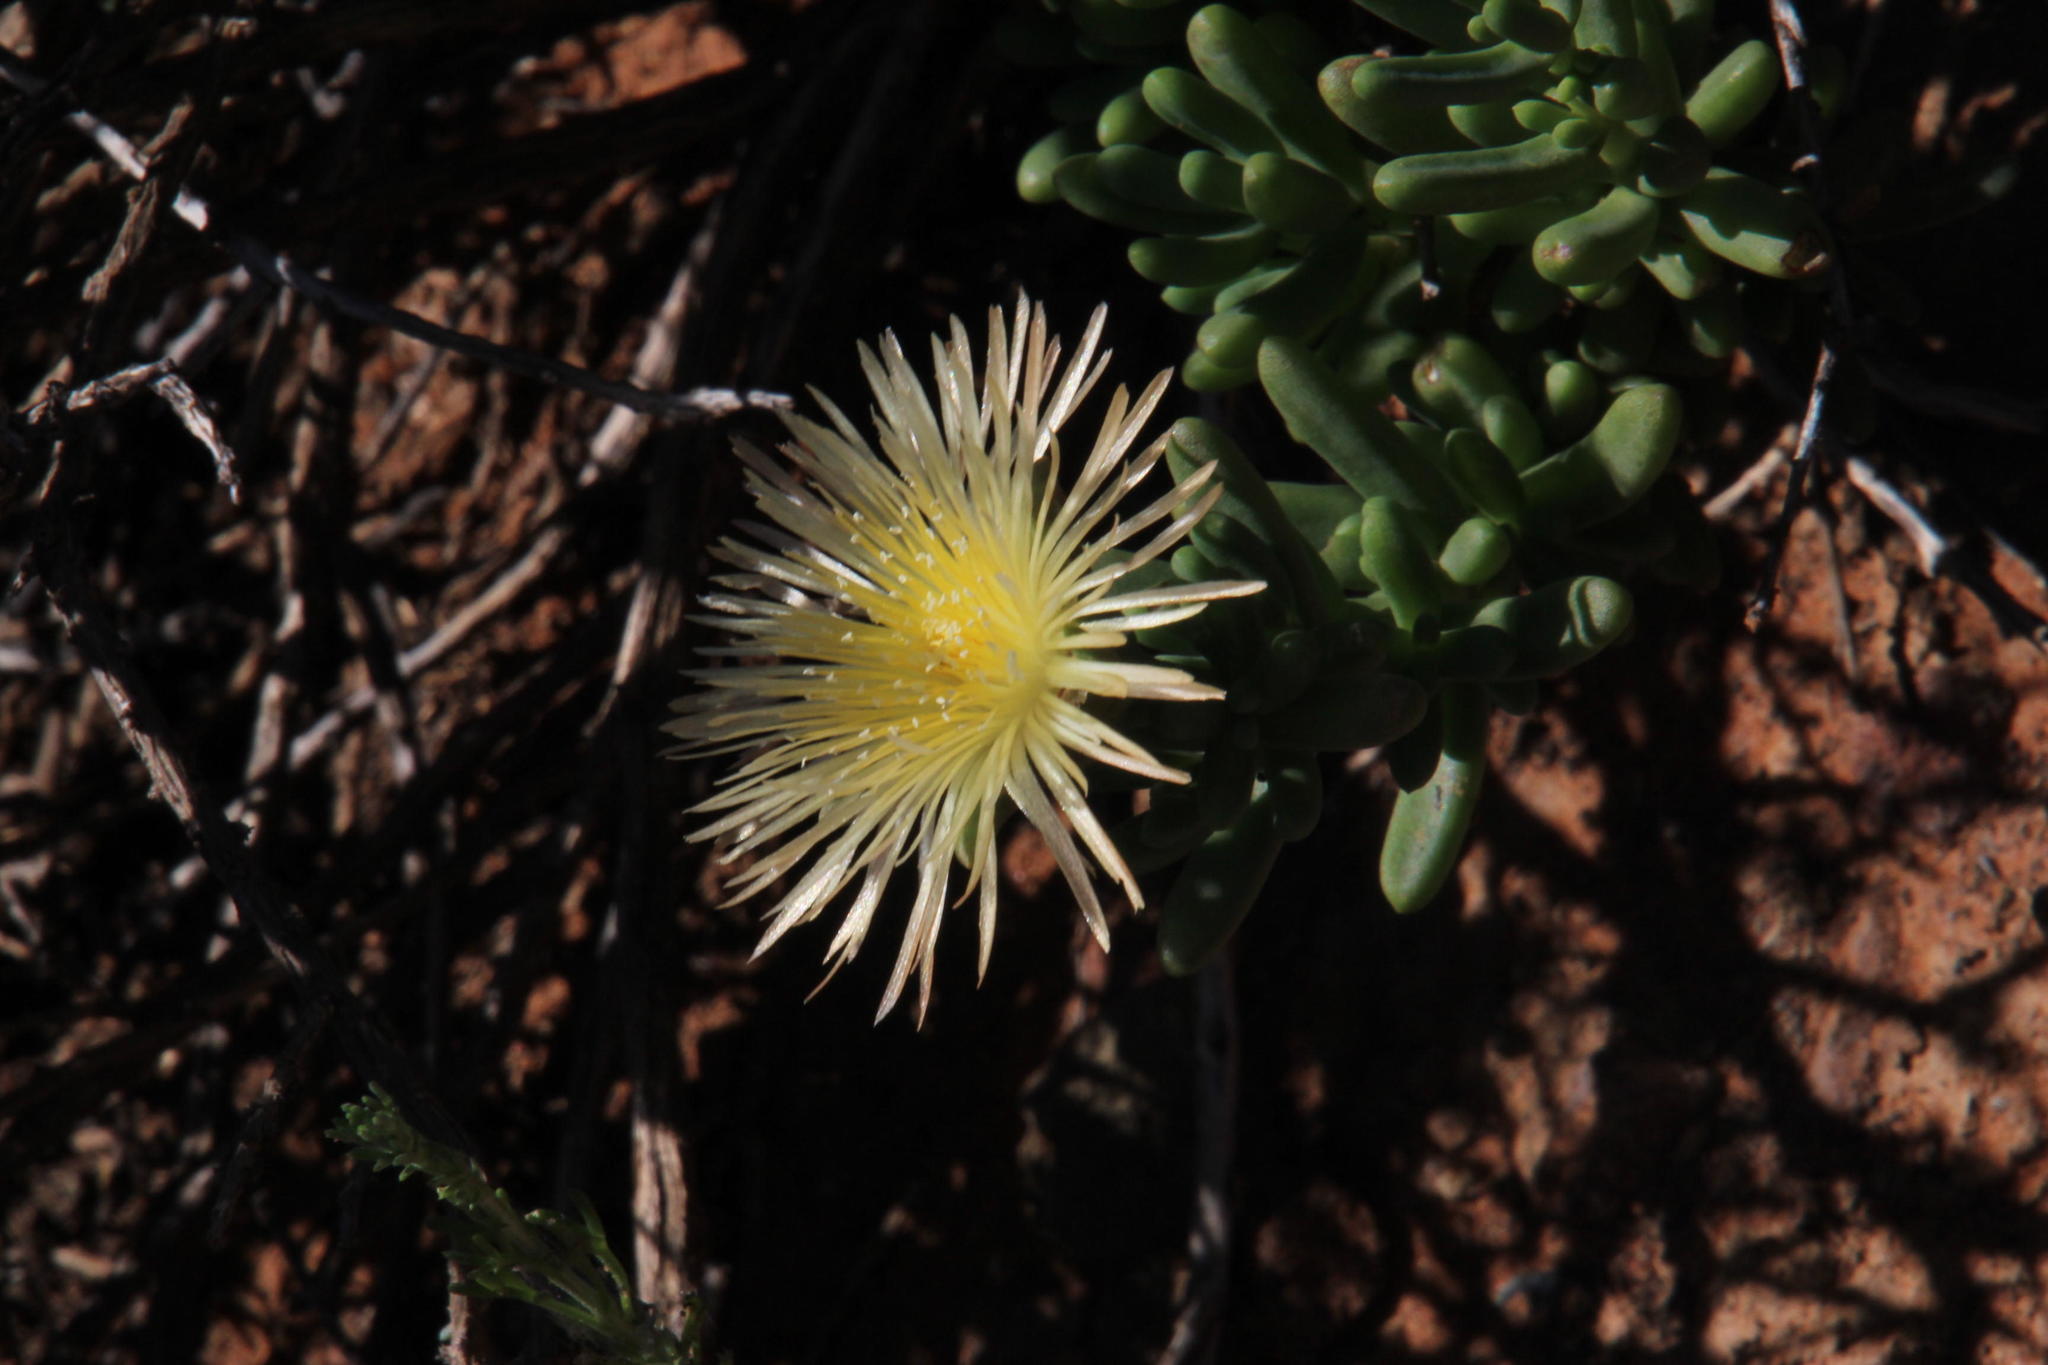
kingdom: Plantae
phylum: Tracheophyta
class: Magnoliopsida
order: Caryophyllales
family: Aizoaceae
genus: Mesembryanthemum
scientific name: Mesembryanthemum splendens
